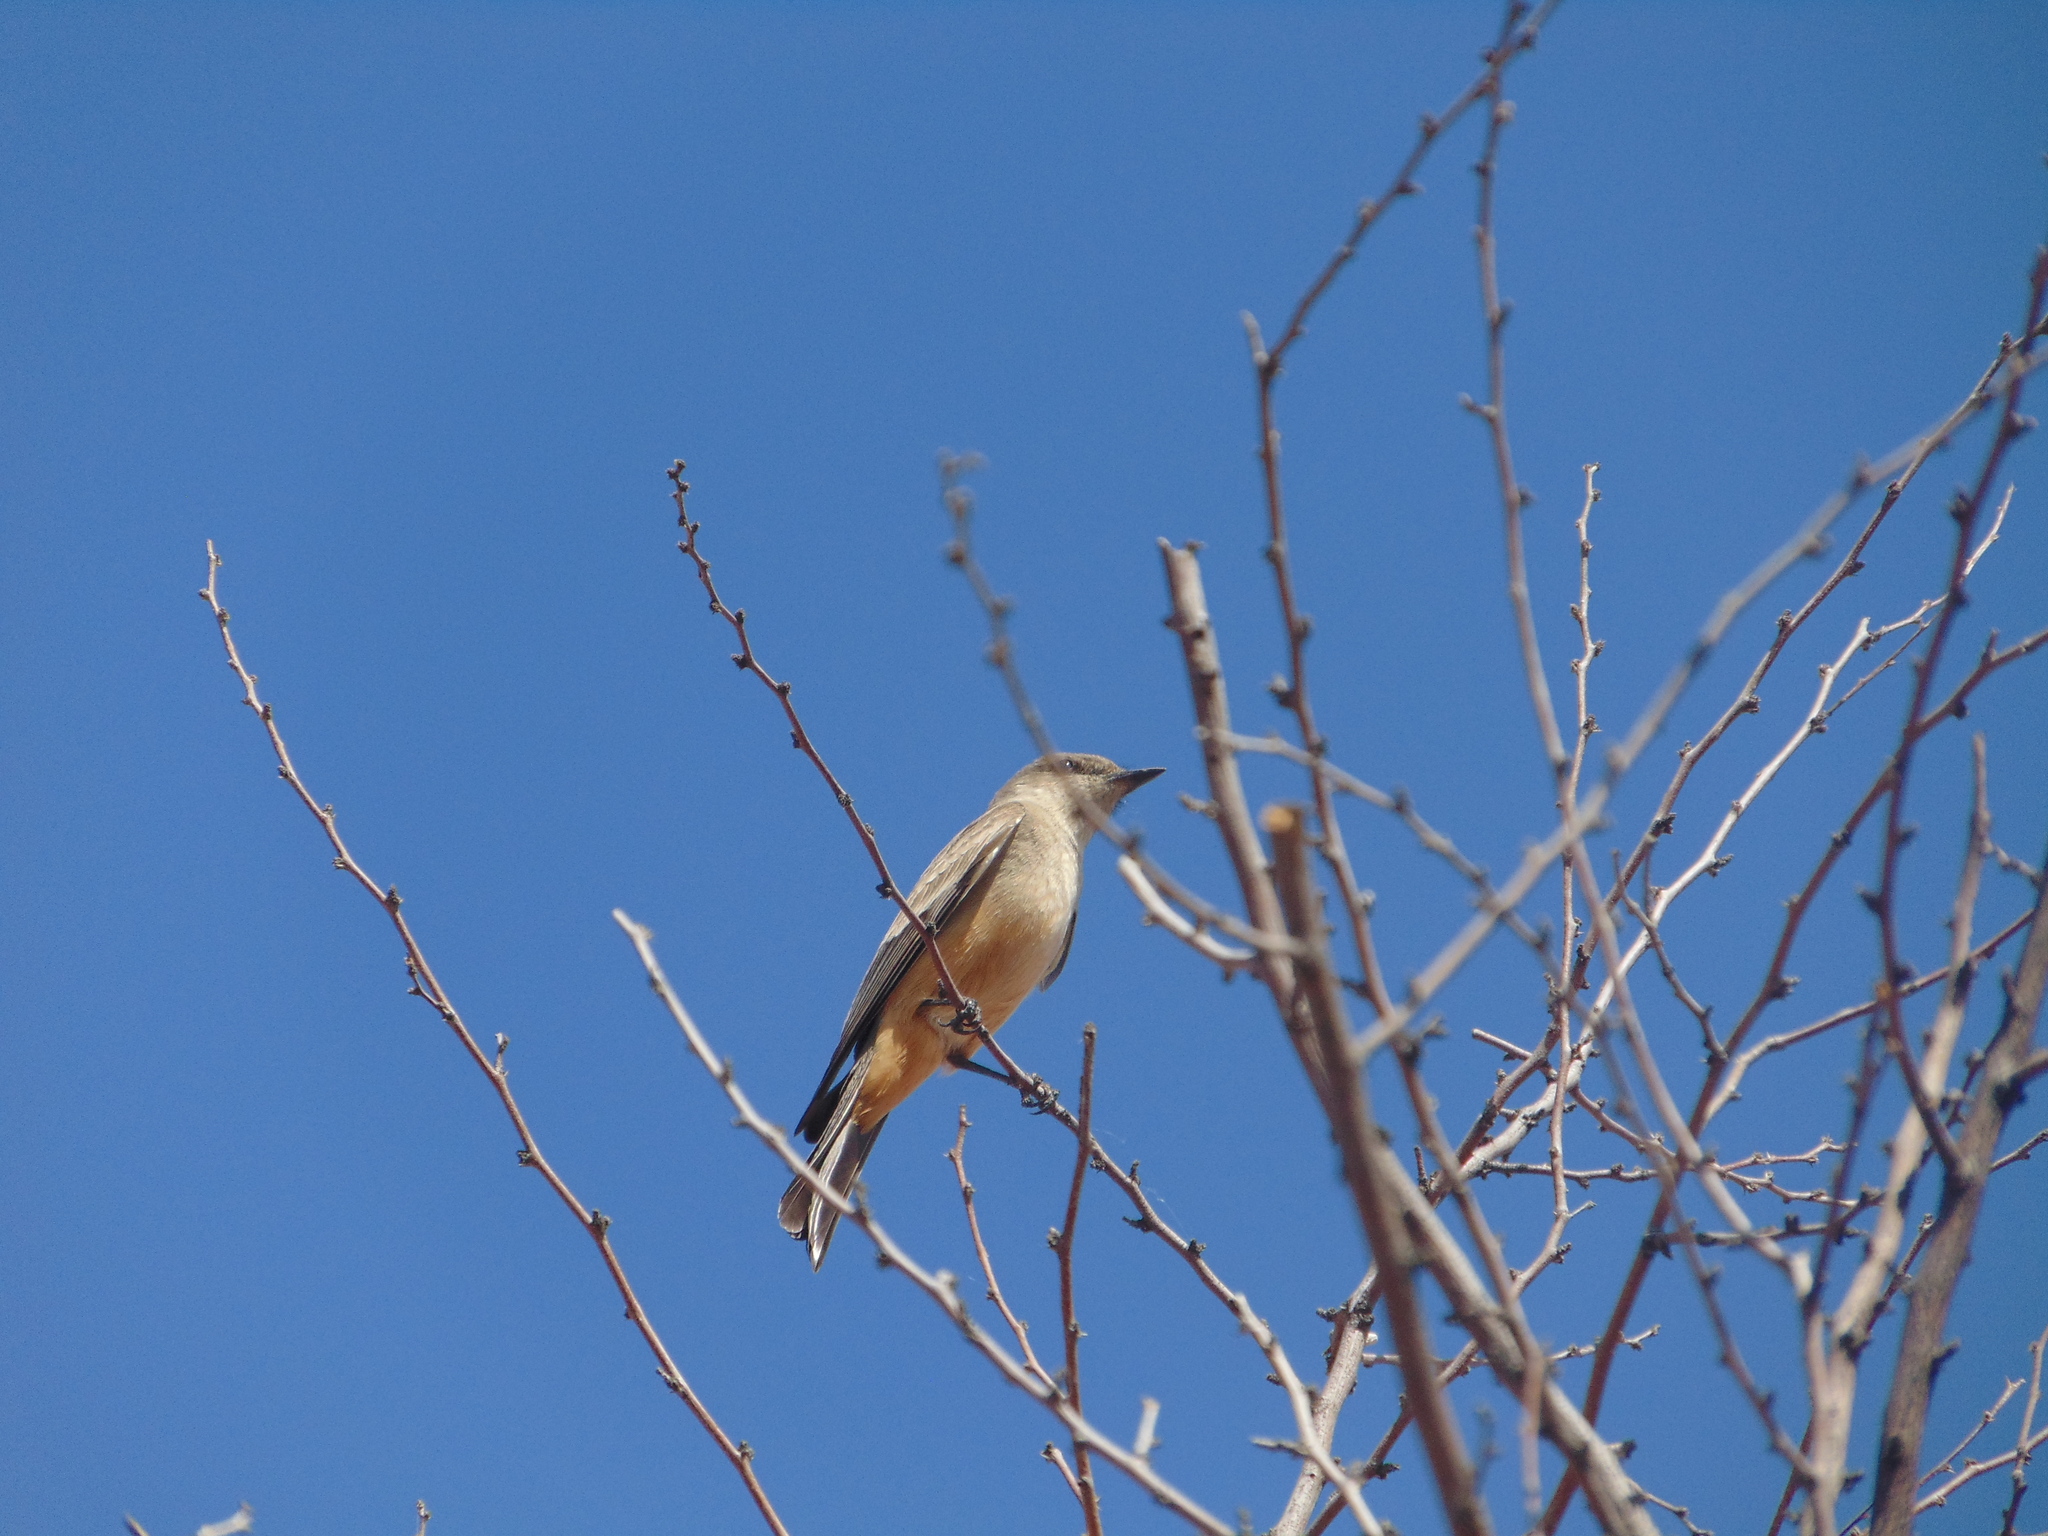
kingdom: Animalia
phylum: Chordata
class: Aves
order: Passeriformes
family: Tyrannidae
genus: Sayornis
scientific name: Sayornis saya
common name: Say's phoebe
